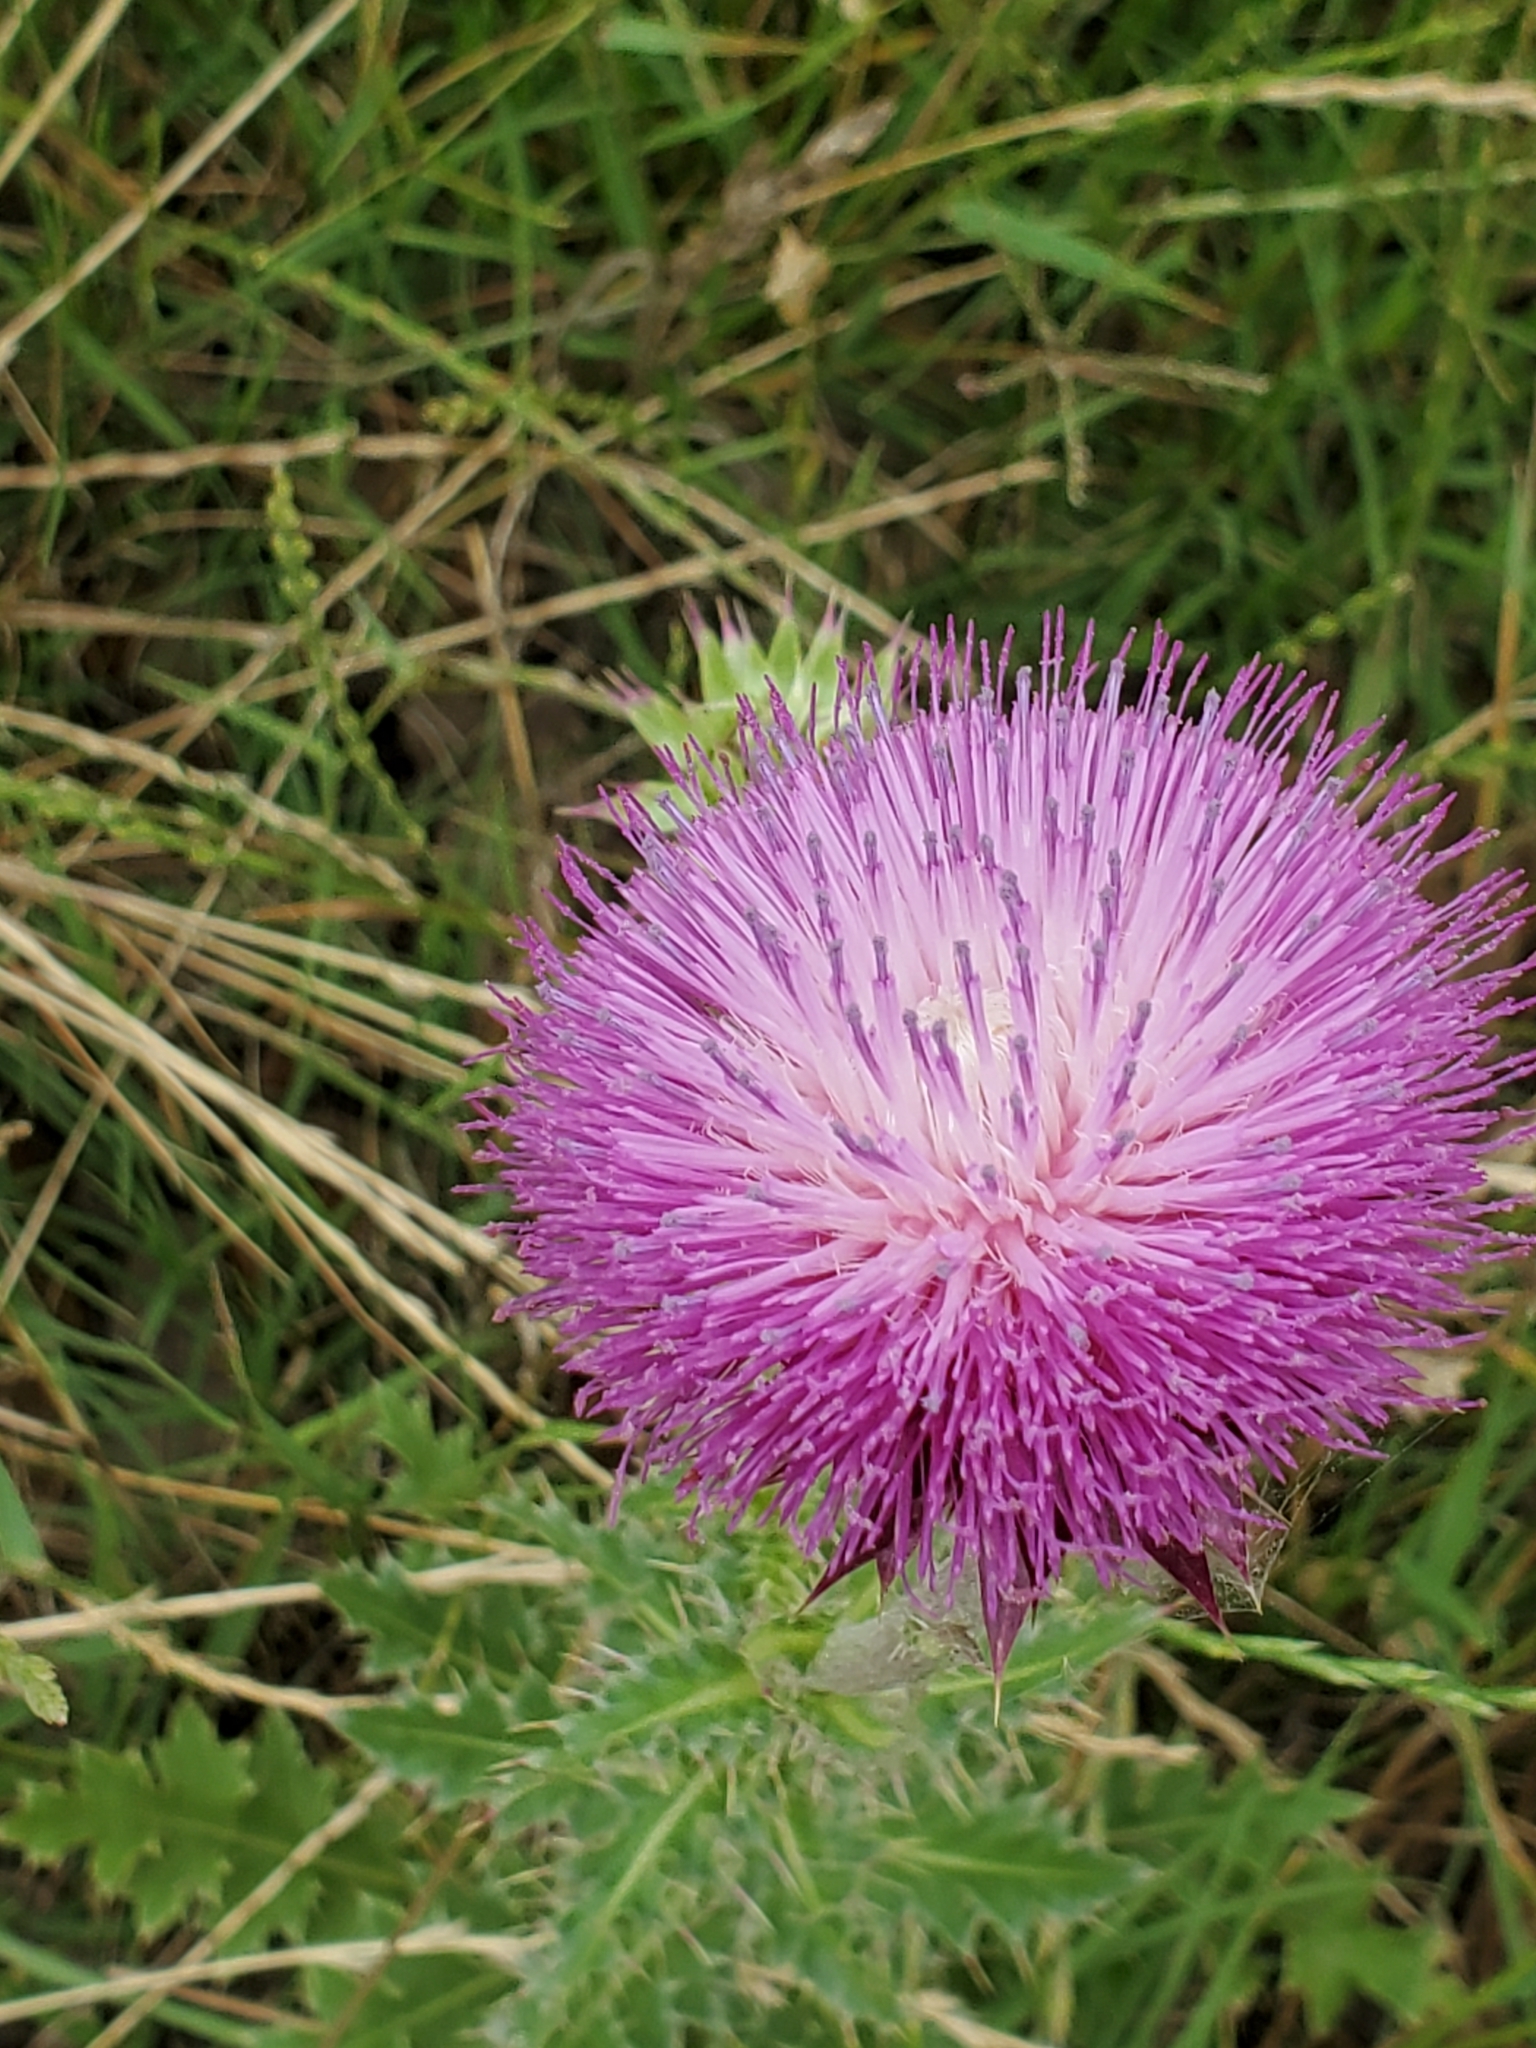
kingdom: Plantae
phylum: Tracheophyta
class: Magnoliopsida
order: Asterales
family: Asteraceae
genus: Carduus
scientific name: Carduus nutans
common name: Musk thistle
